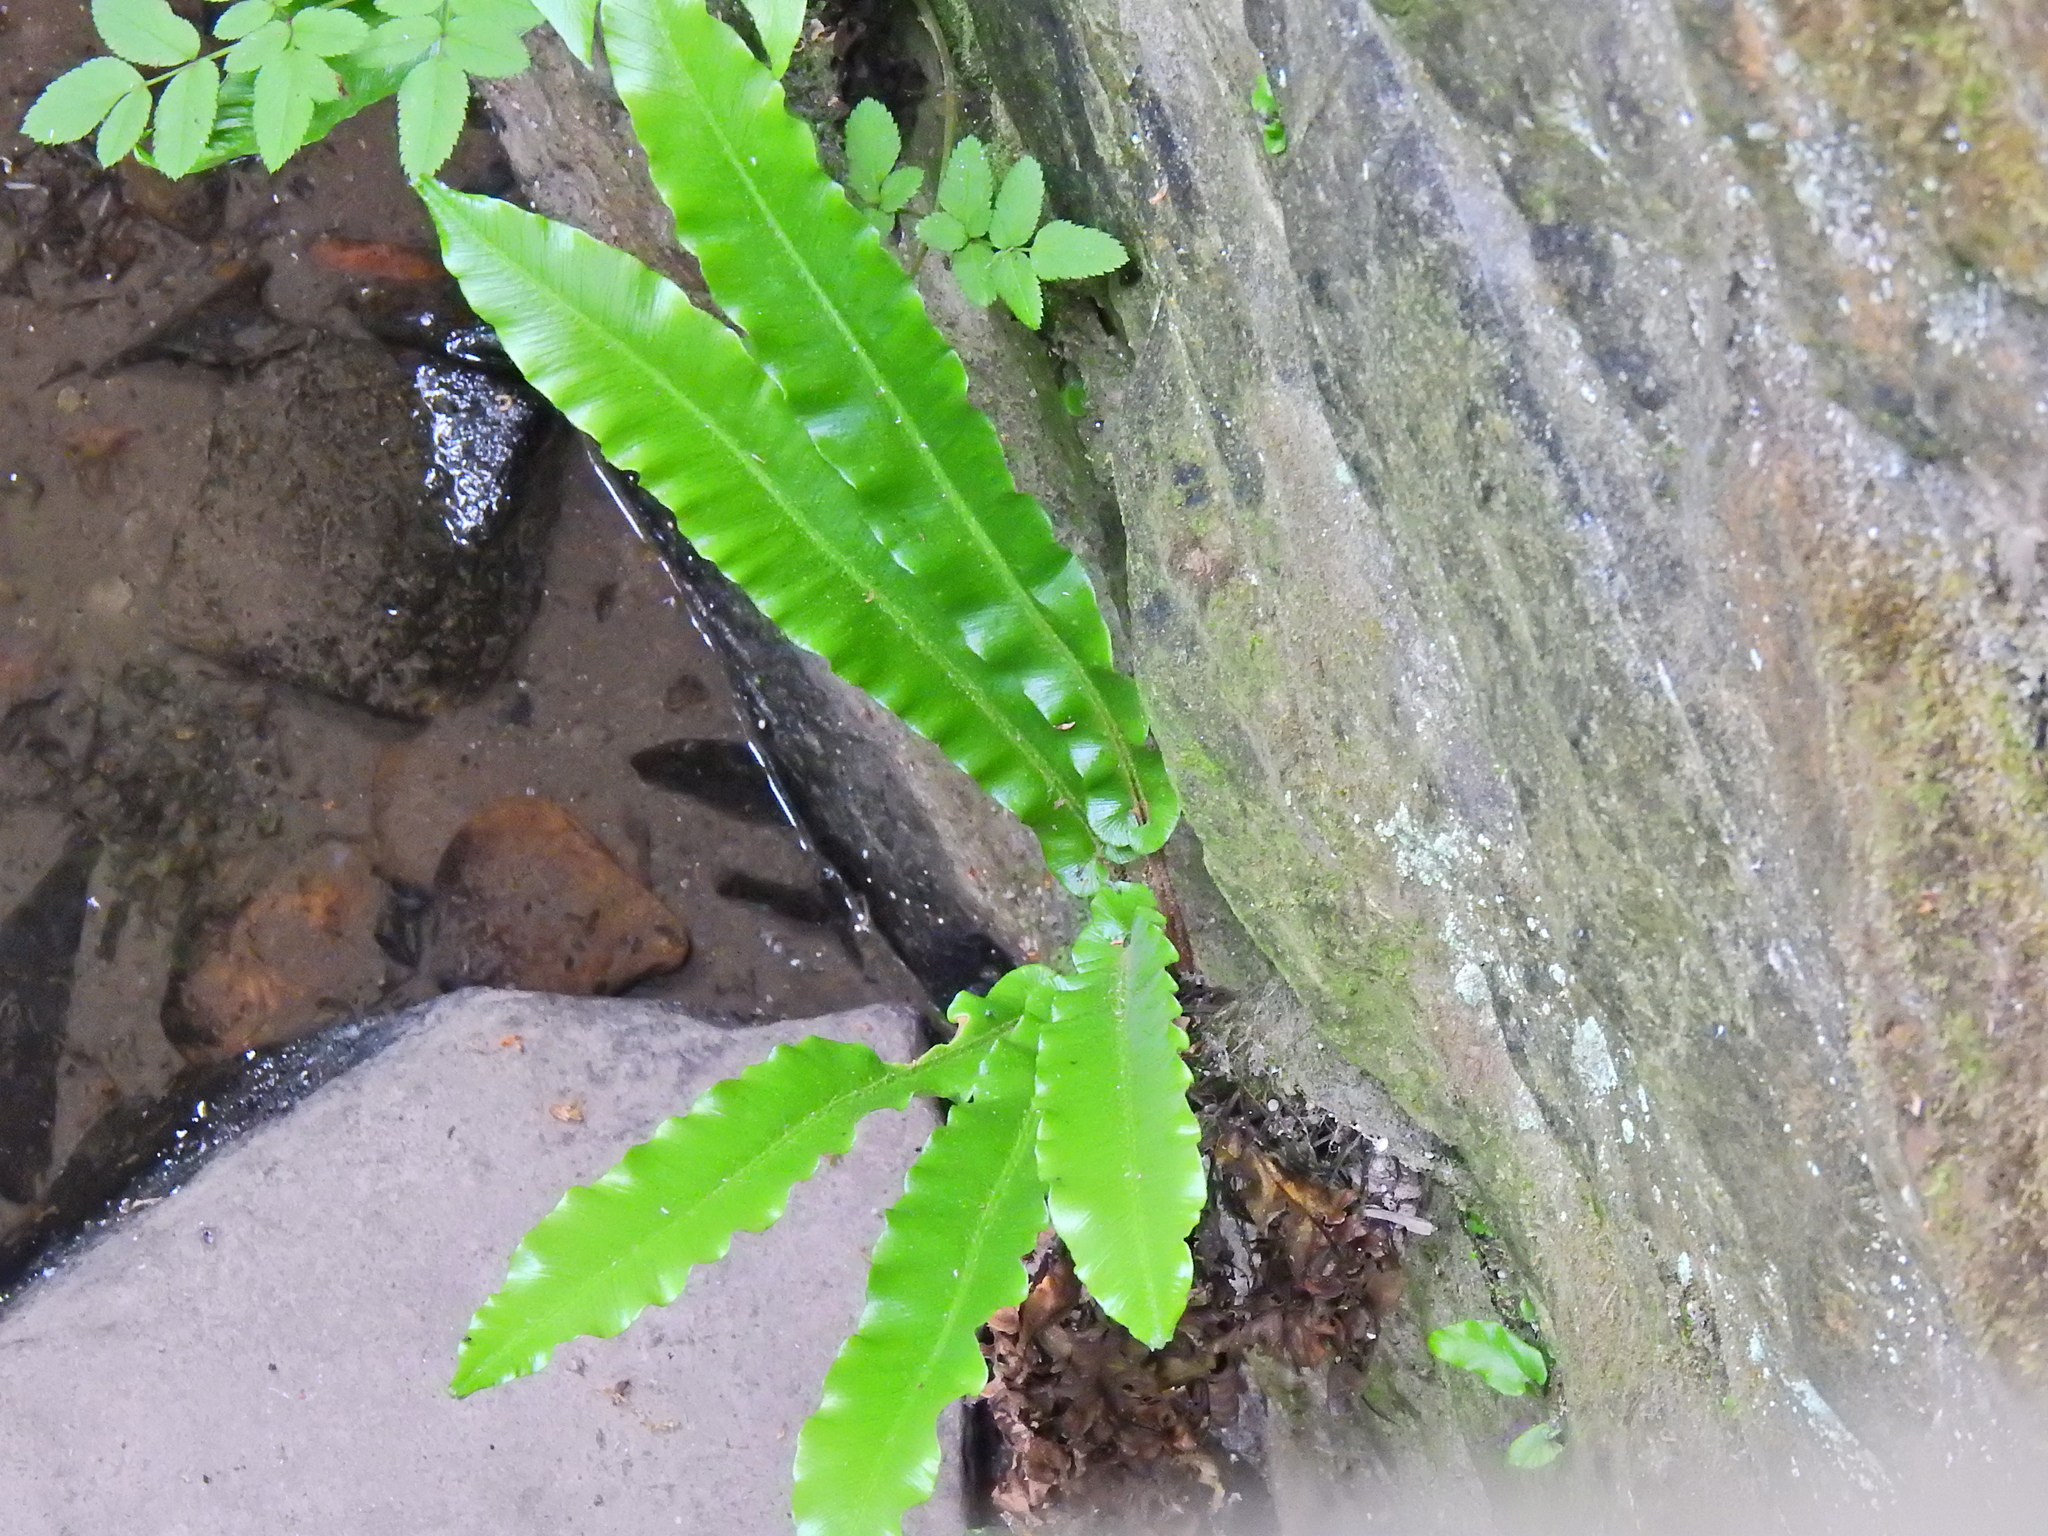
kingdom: Plantae
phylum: Tracheophyta
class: Polypodiopsida
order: Polypodiales
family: Aspleniaceae
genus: Asplenium
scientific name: Asplenium scolopendrium
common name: Hart's-tongue fern
